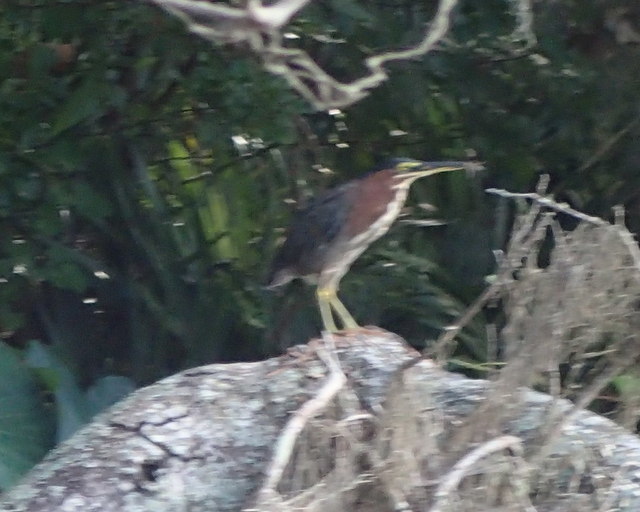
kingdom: Animalia
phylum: Chordata
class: Aves
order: Pelecaniformes
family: Ardeidae
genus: Butorides
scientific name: Butorides virescens
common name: Green heron
